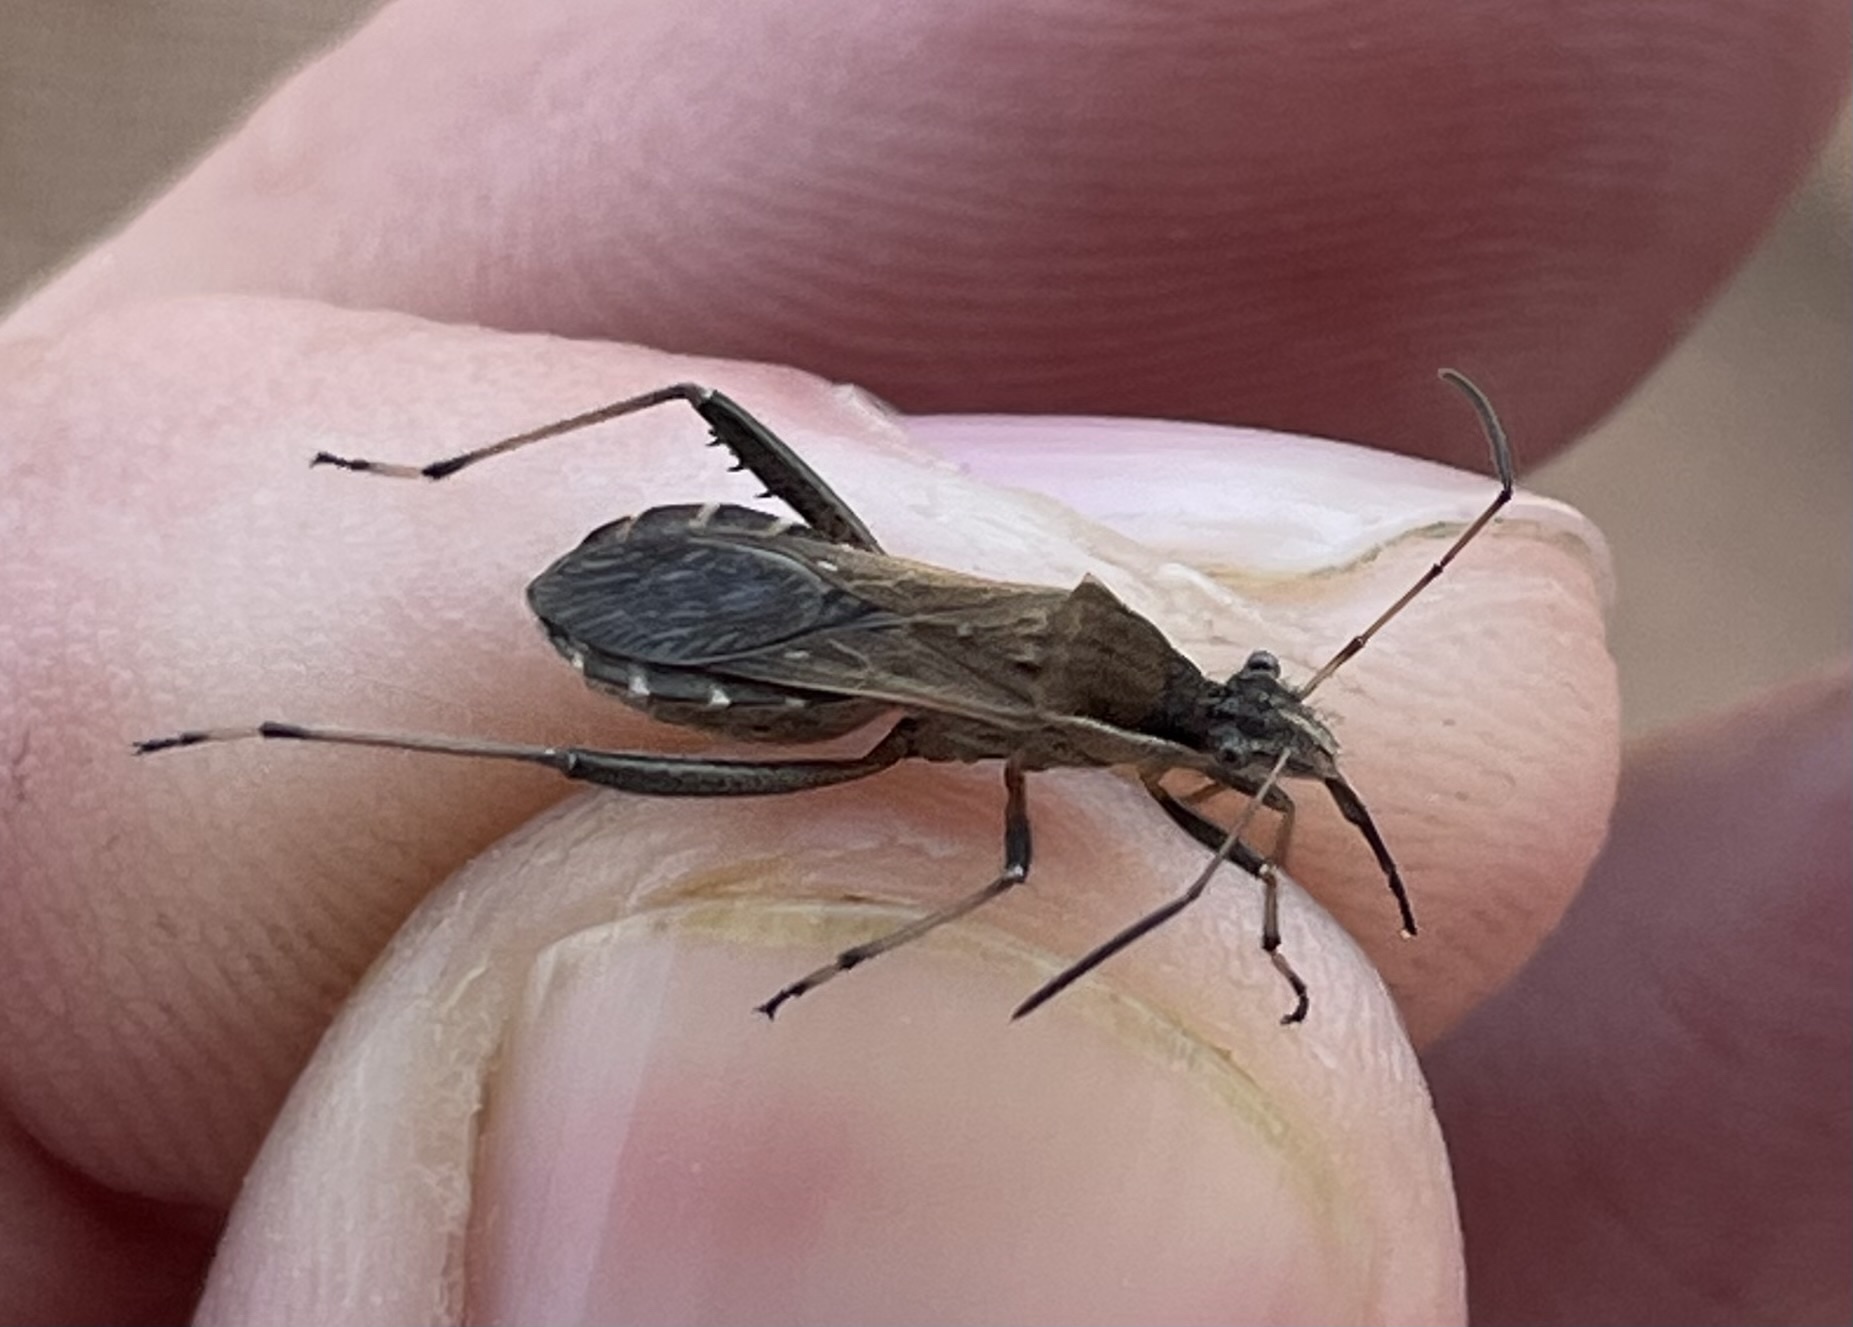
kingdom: Animalia
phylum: Arthropoda
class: Insecta
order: Hemiptera
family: Alydidae
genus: Alydus
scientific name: Alydus pilosulus
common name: Broad-headed bug
